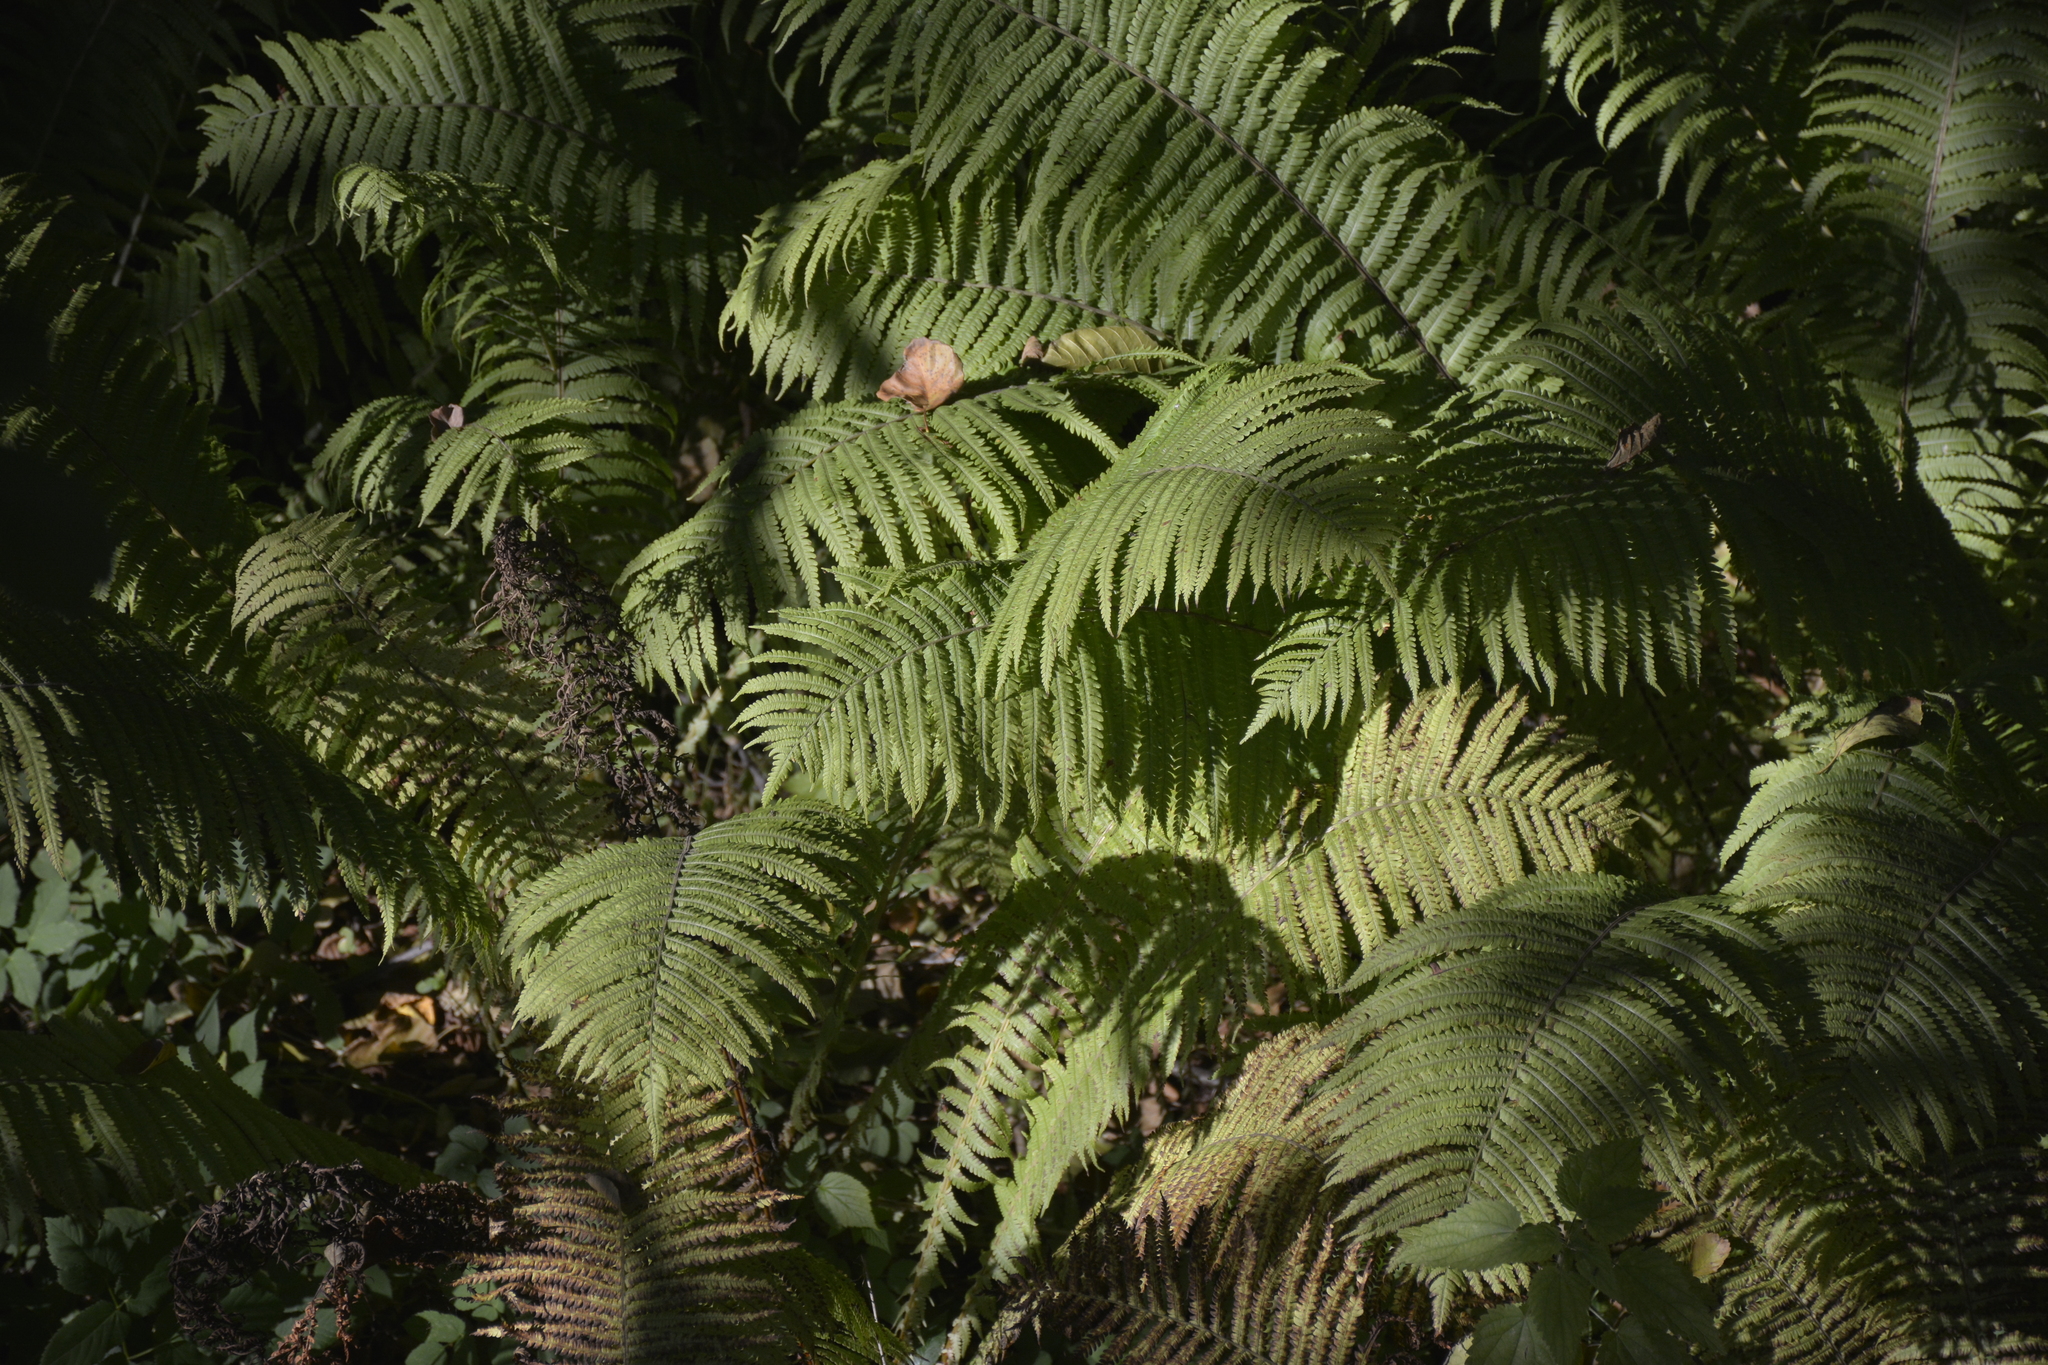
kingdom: Plantae
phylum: Tracheophyta
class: Polypodiopsida
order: Polypodiales
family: Onocleaceae
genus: Matteuccia
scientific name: Matteuccia struthiopteris
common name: Ostrich fern
